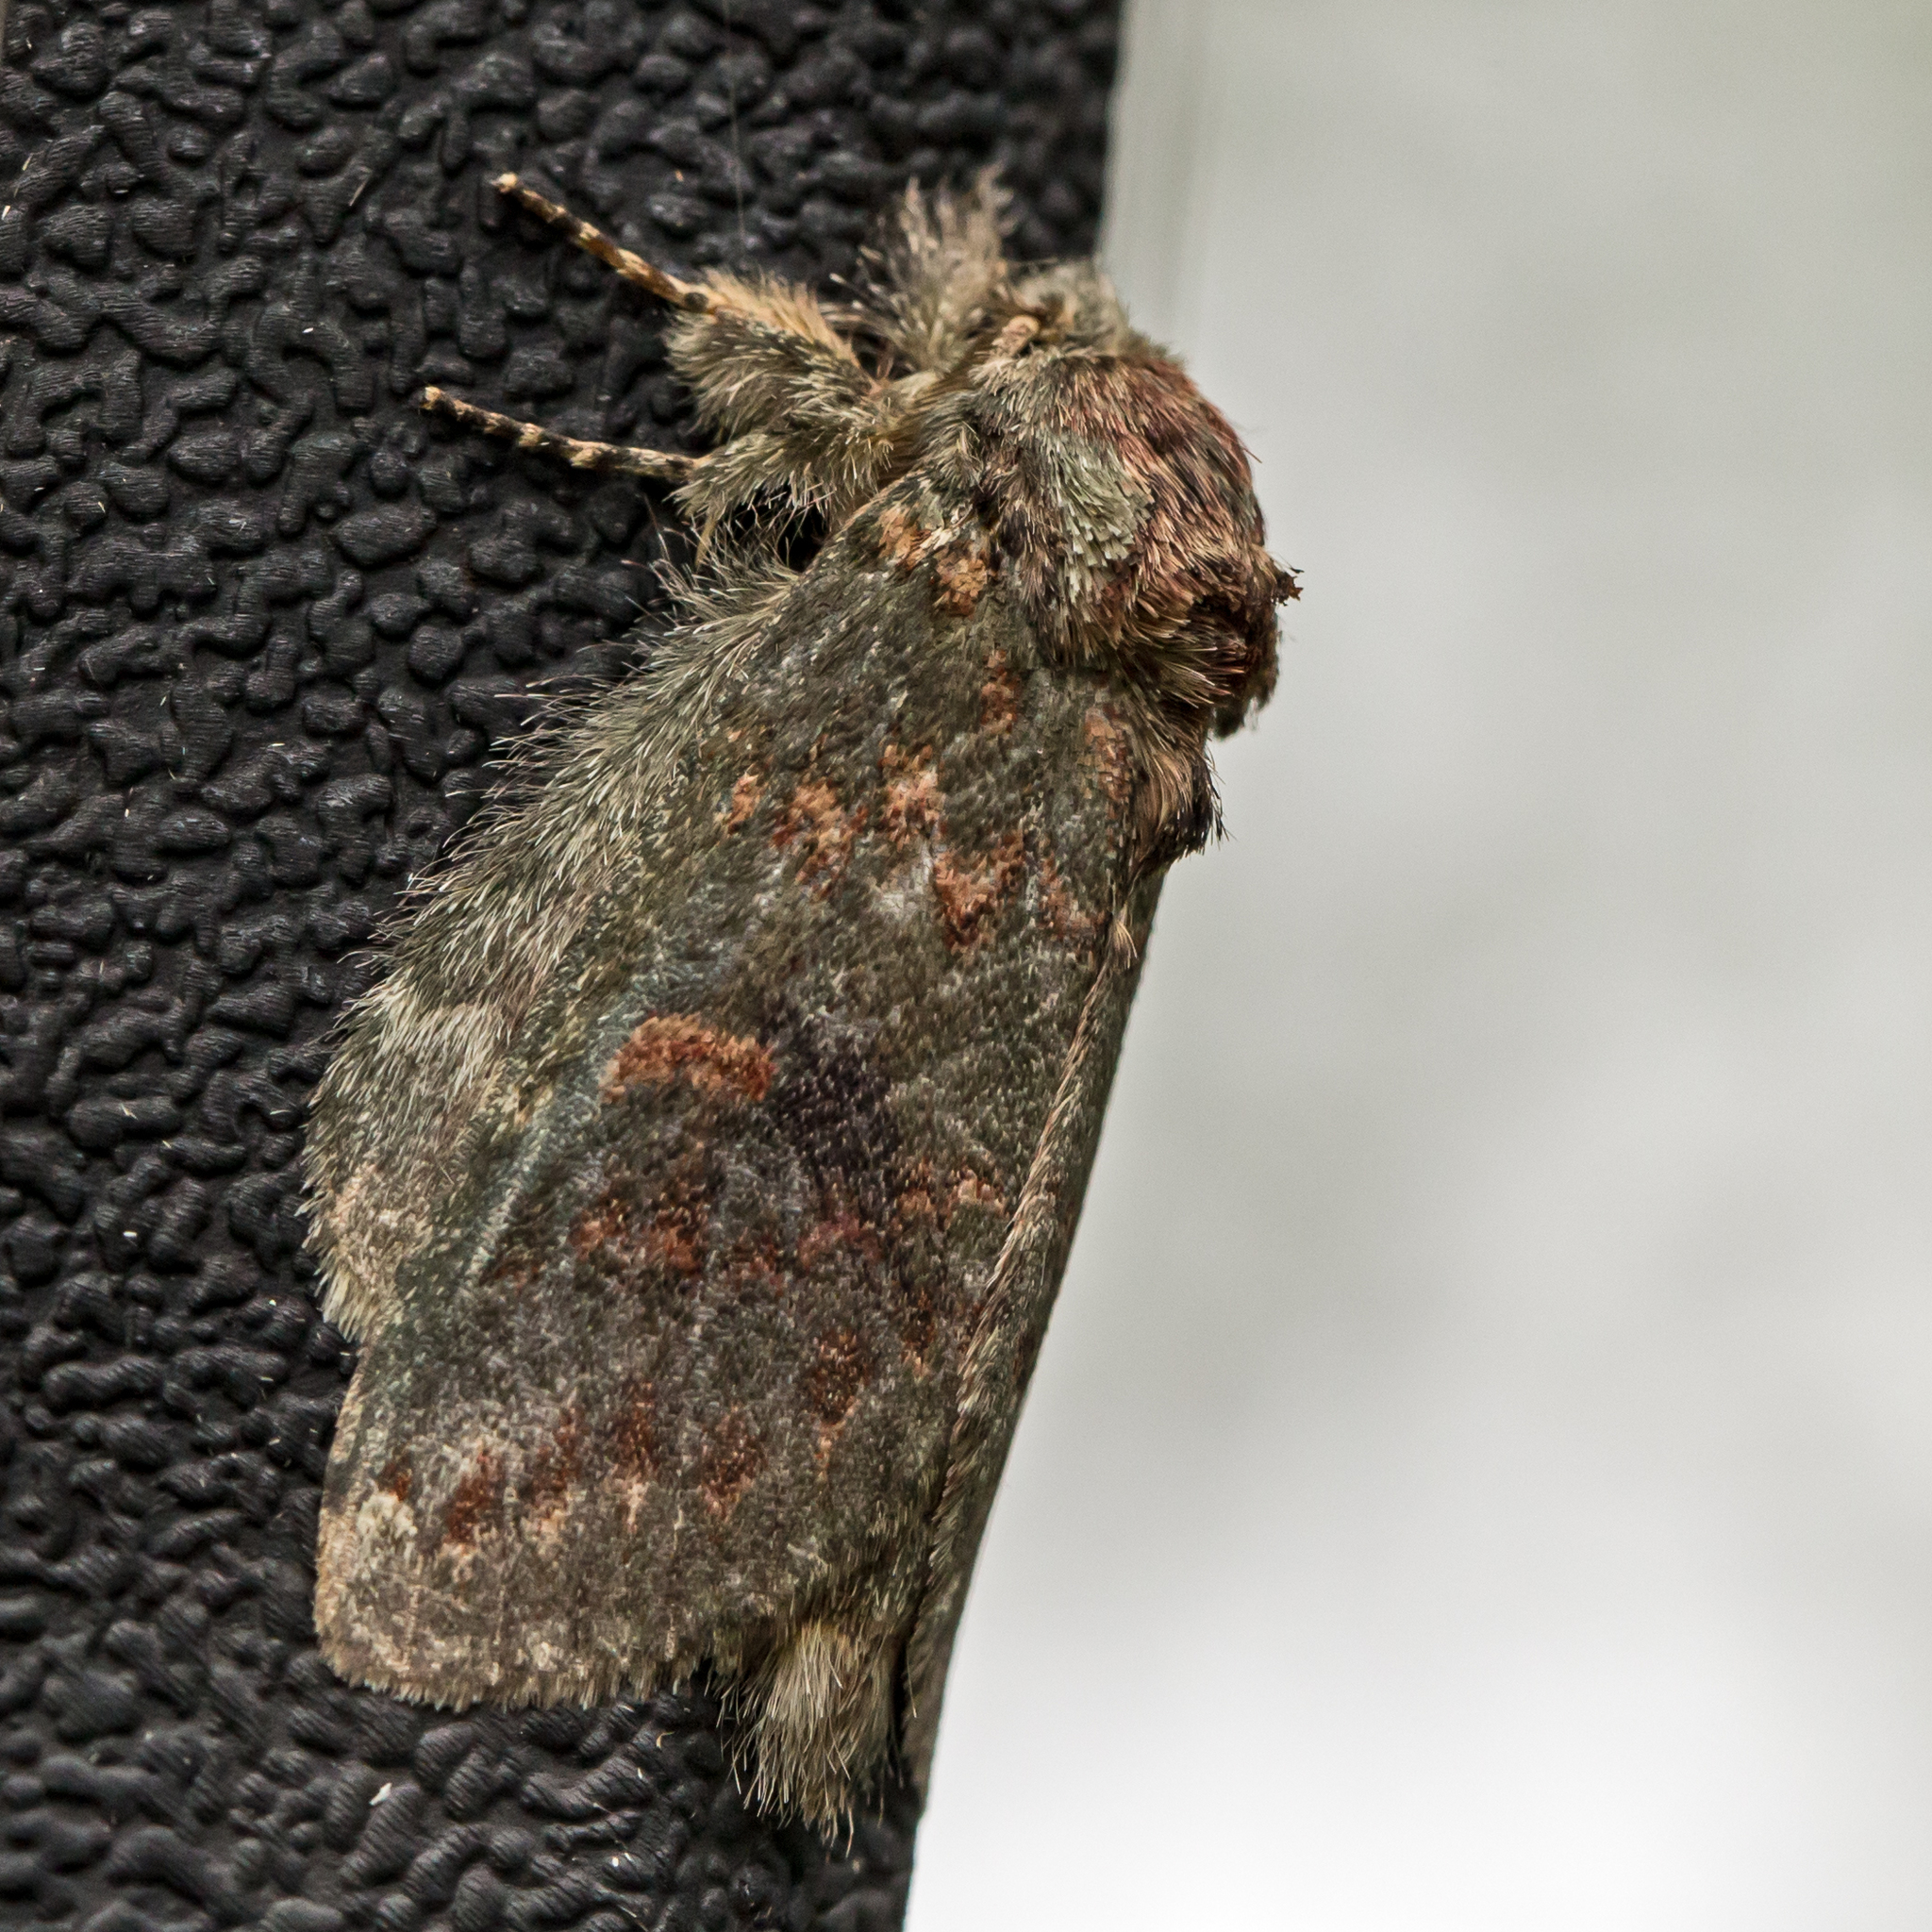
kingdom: Animalia
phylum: Arthropoda
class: Insecta
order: Lepidoptera
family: Notodontidae
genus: Disphragis
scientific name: Disphragis Cecrita biundata
